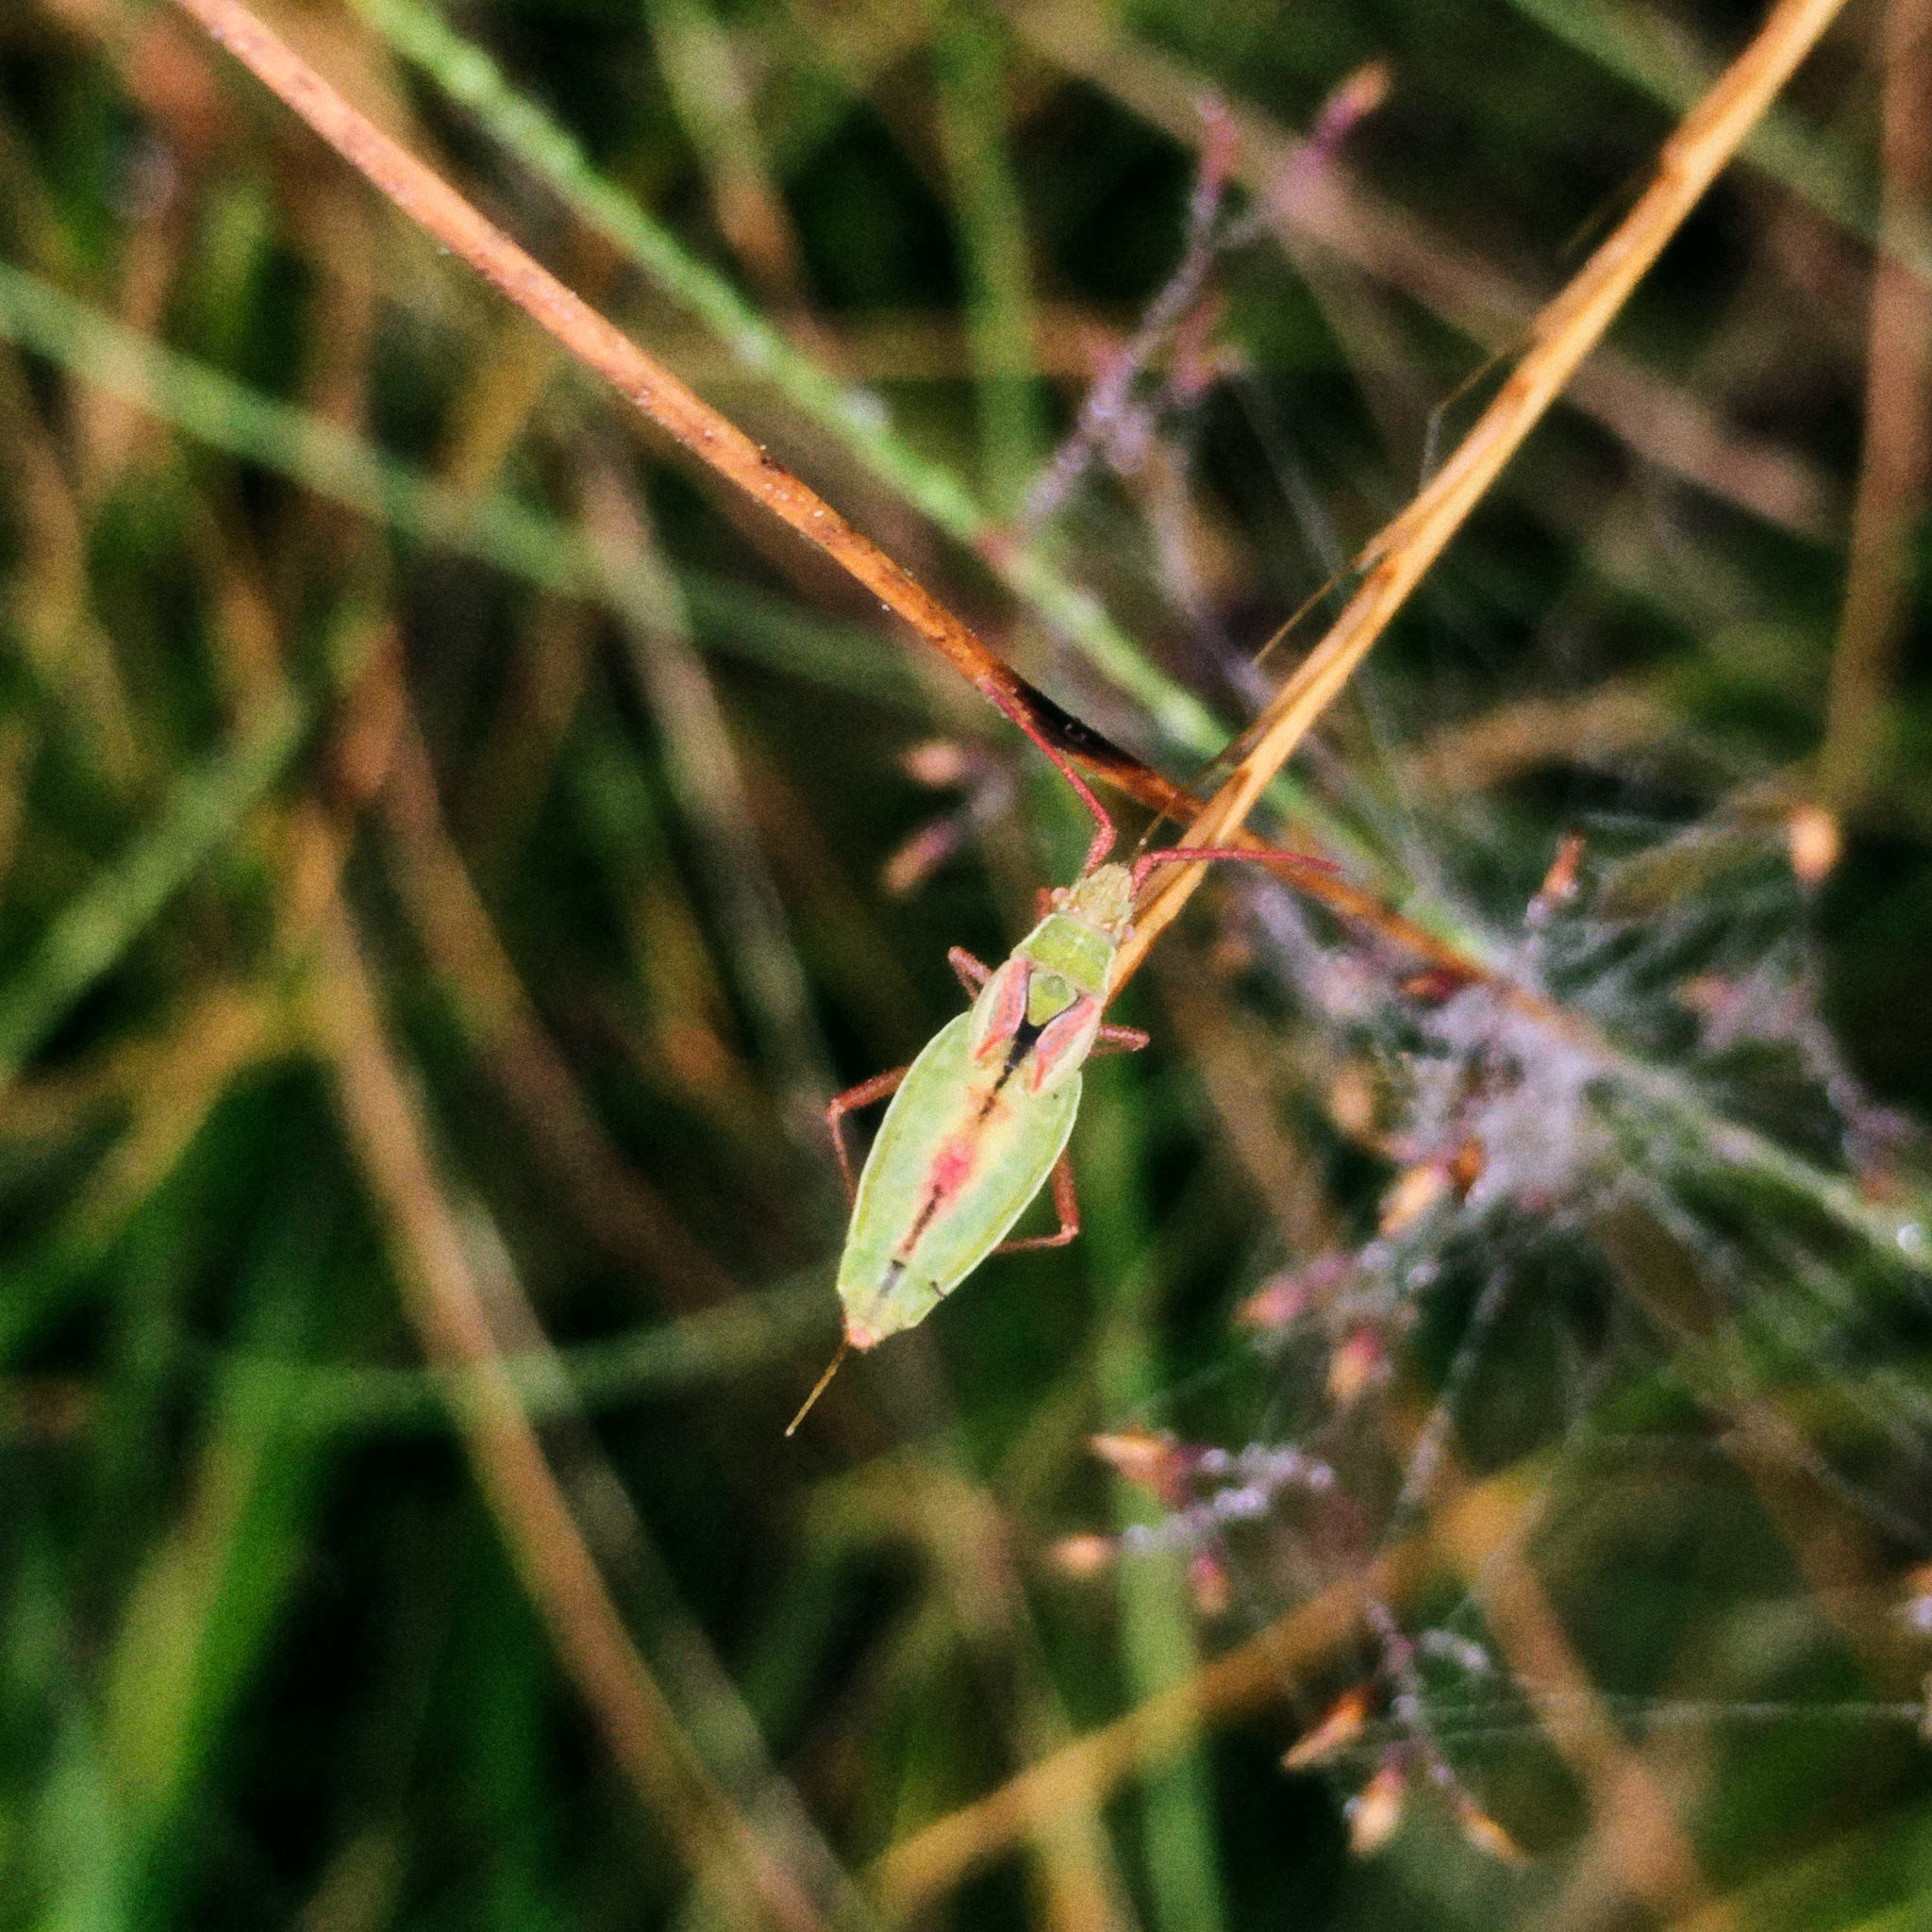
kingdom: Animalia
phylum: Arthropoda
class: Insecta
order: Hemiptera
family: Rhopalidae
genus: Myrmus
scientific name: Myrmus miriformis
